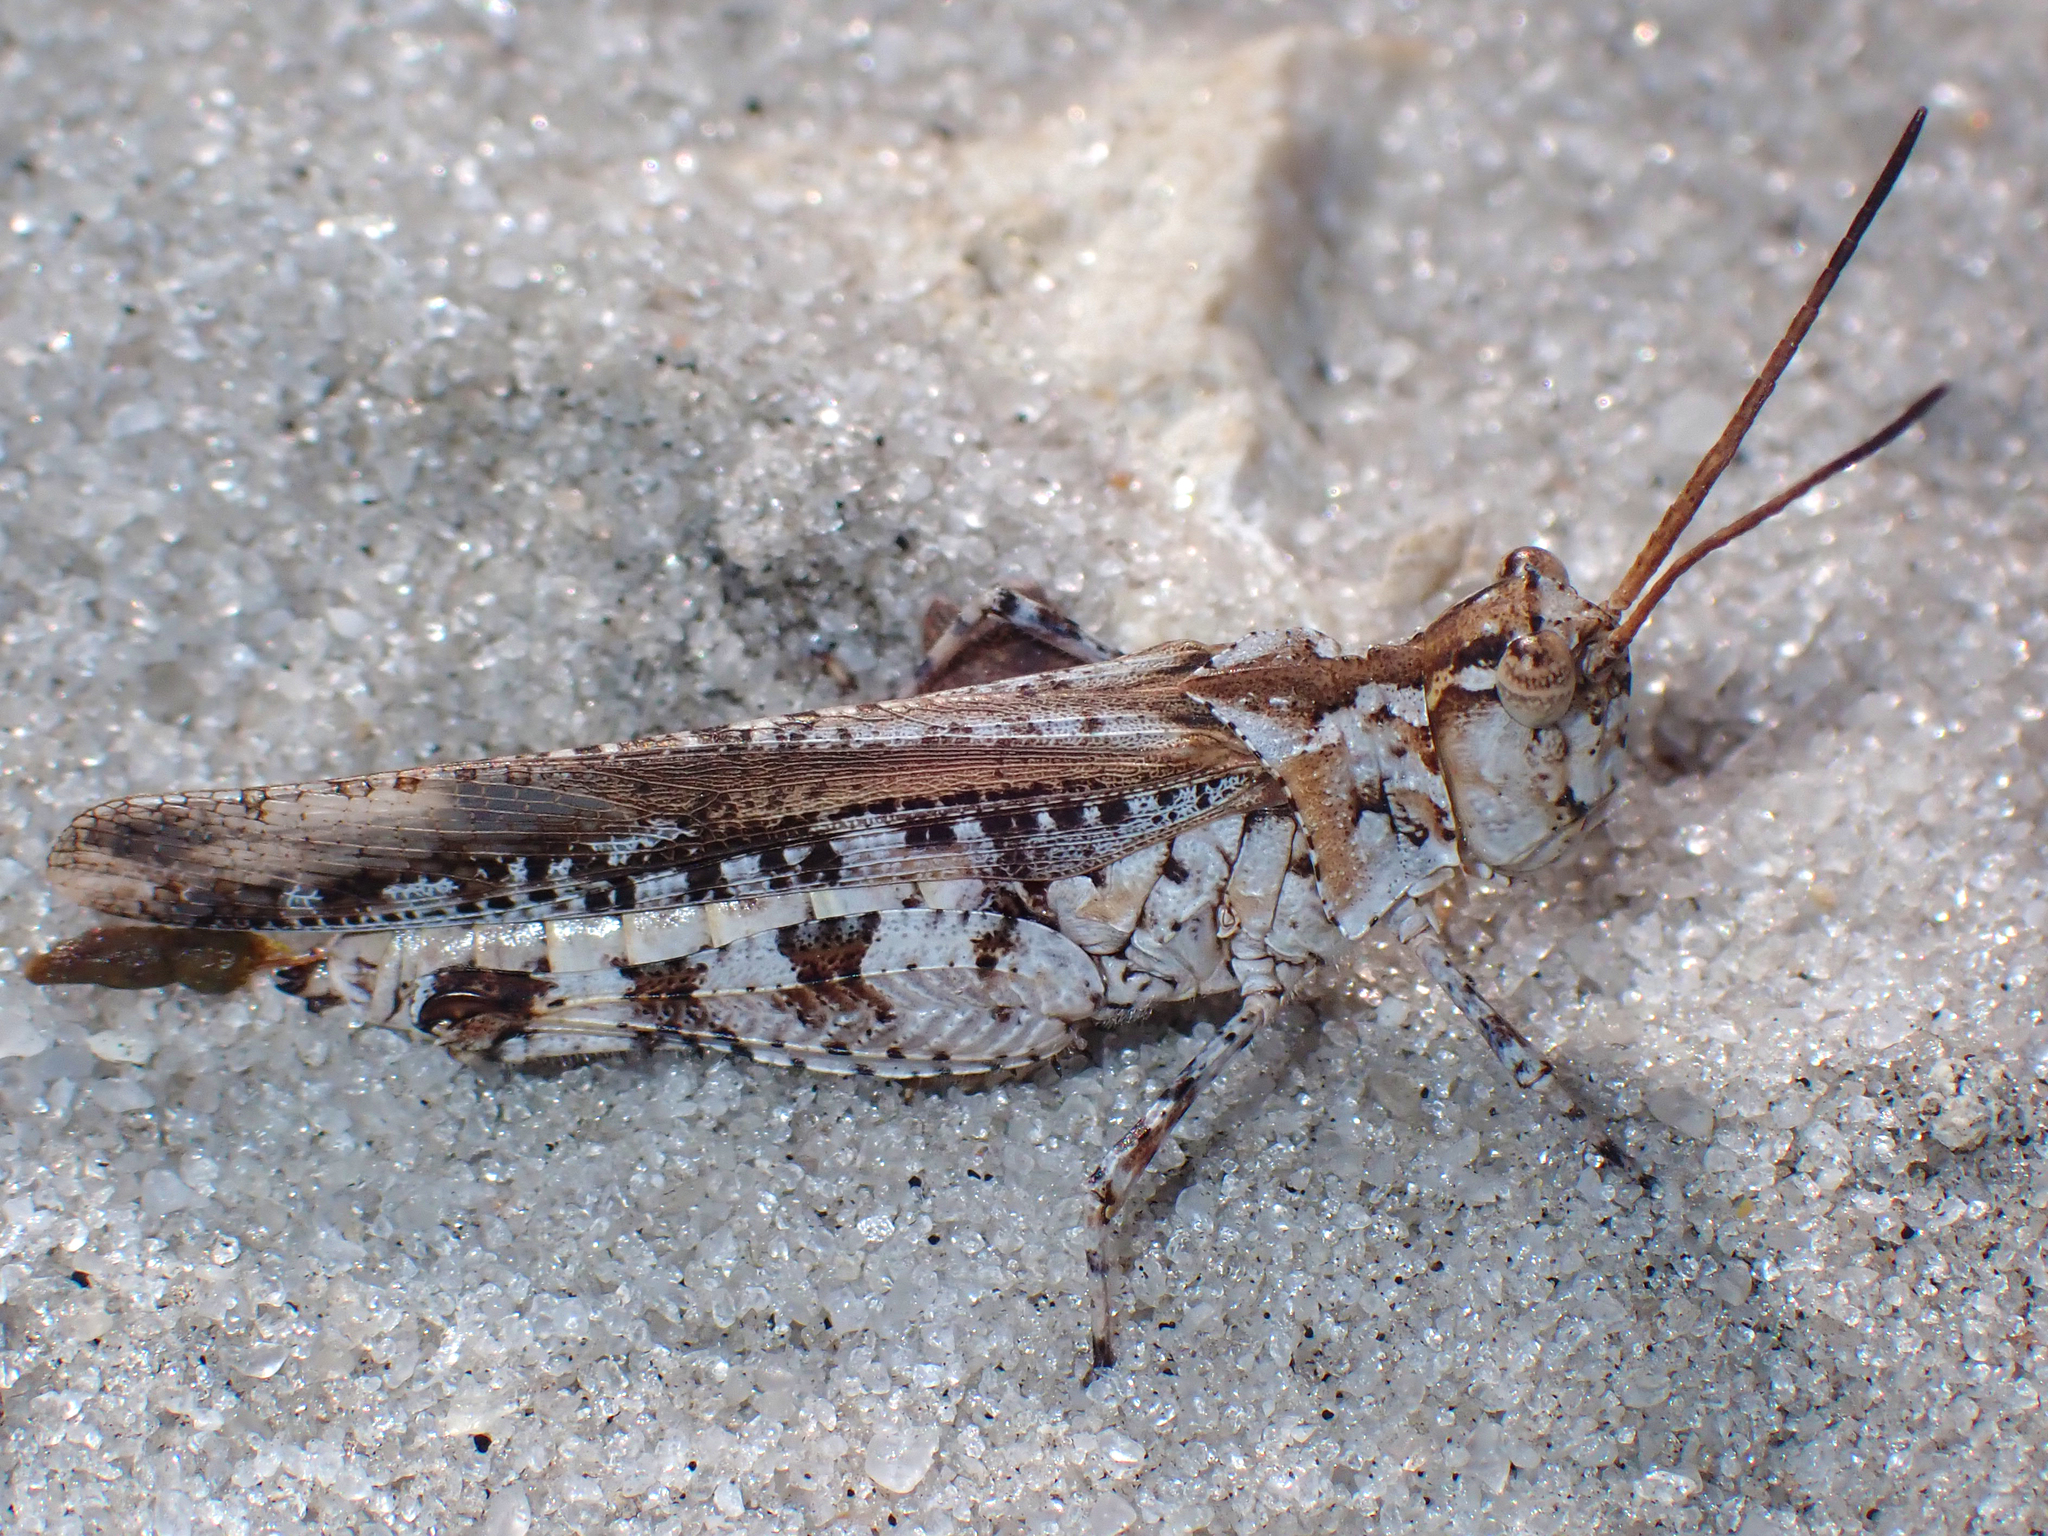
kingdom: Animalia
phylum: Arthropoda
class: Insecta
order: Orthoptera
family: Acrididae
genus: Psinidia
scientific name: Psinidia fenestralis
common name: Long-horned locust
